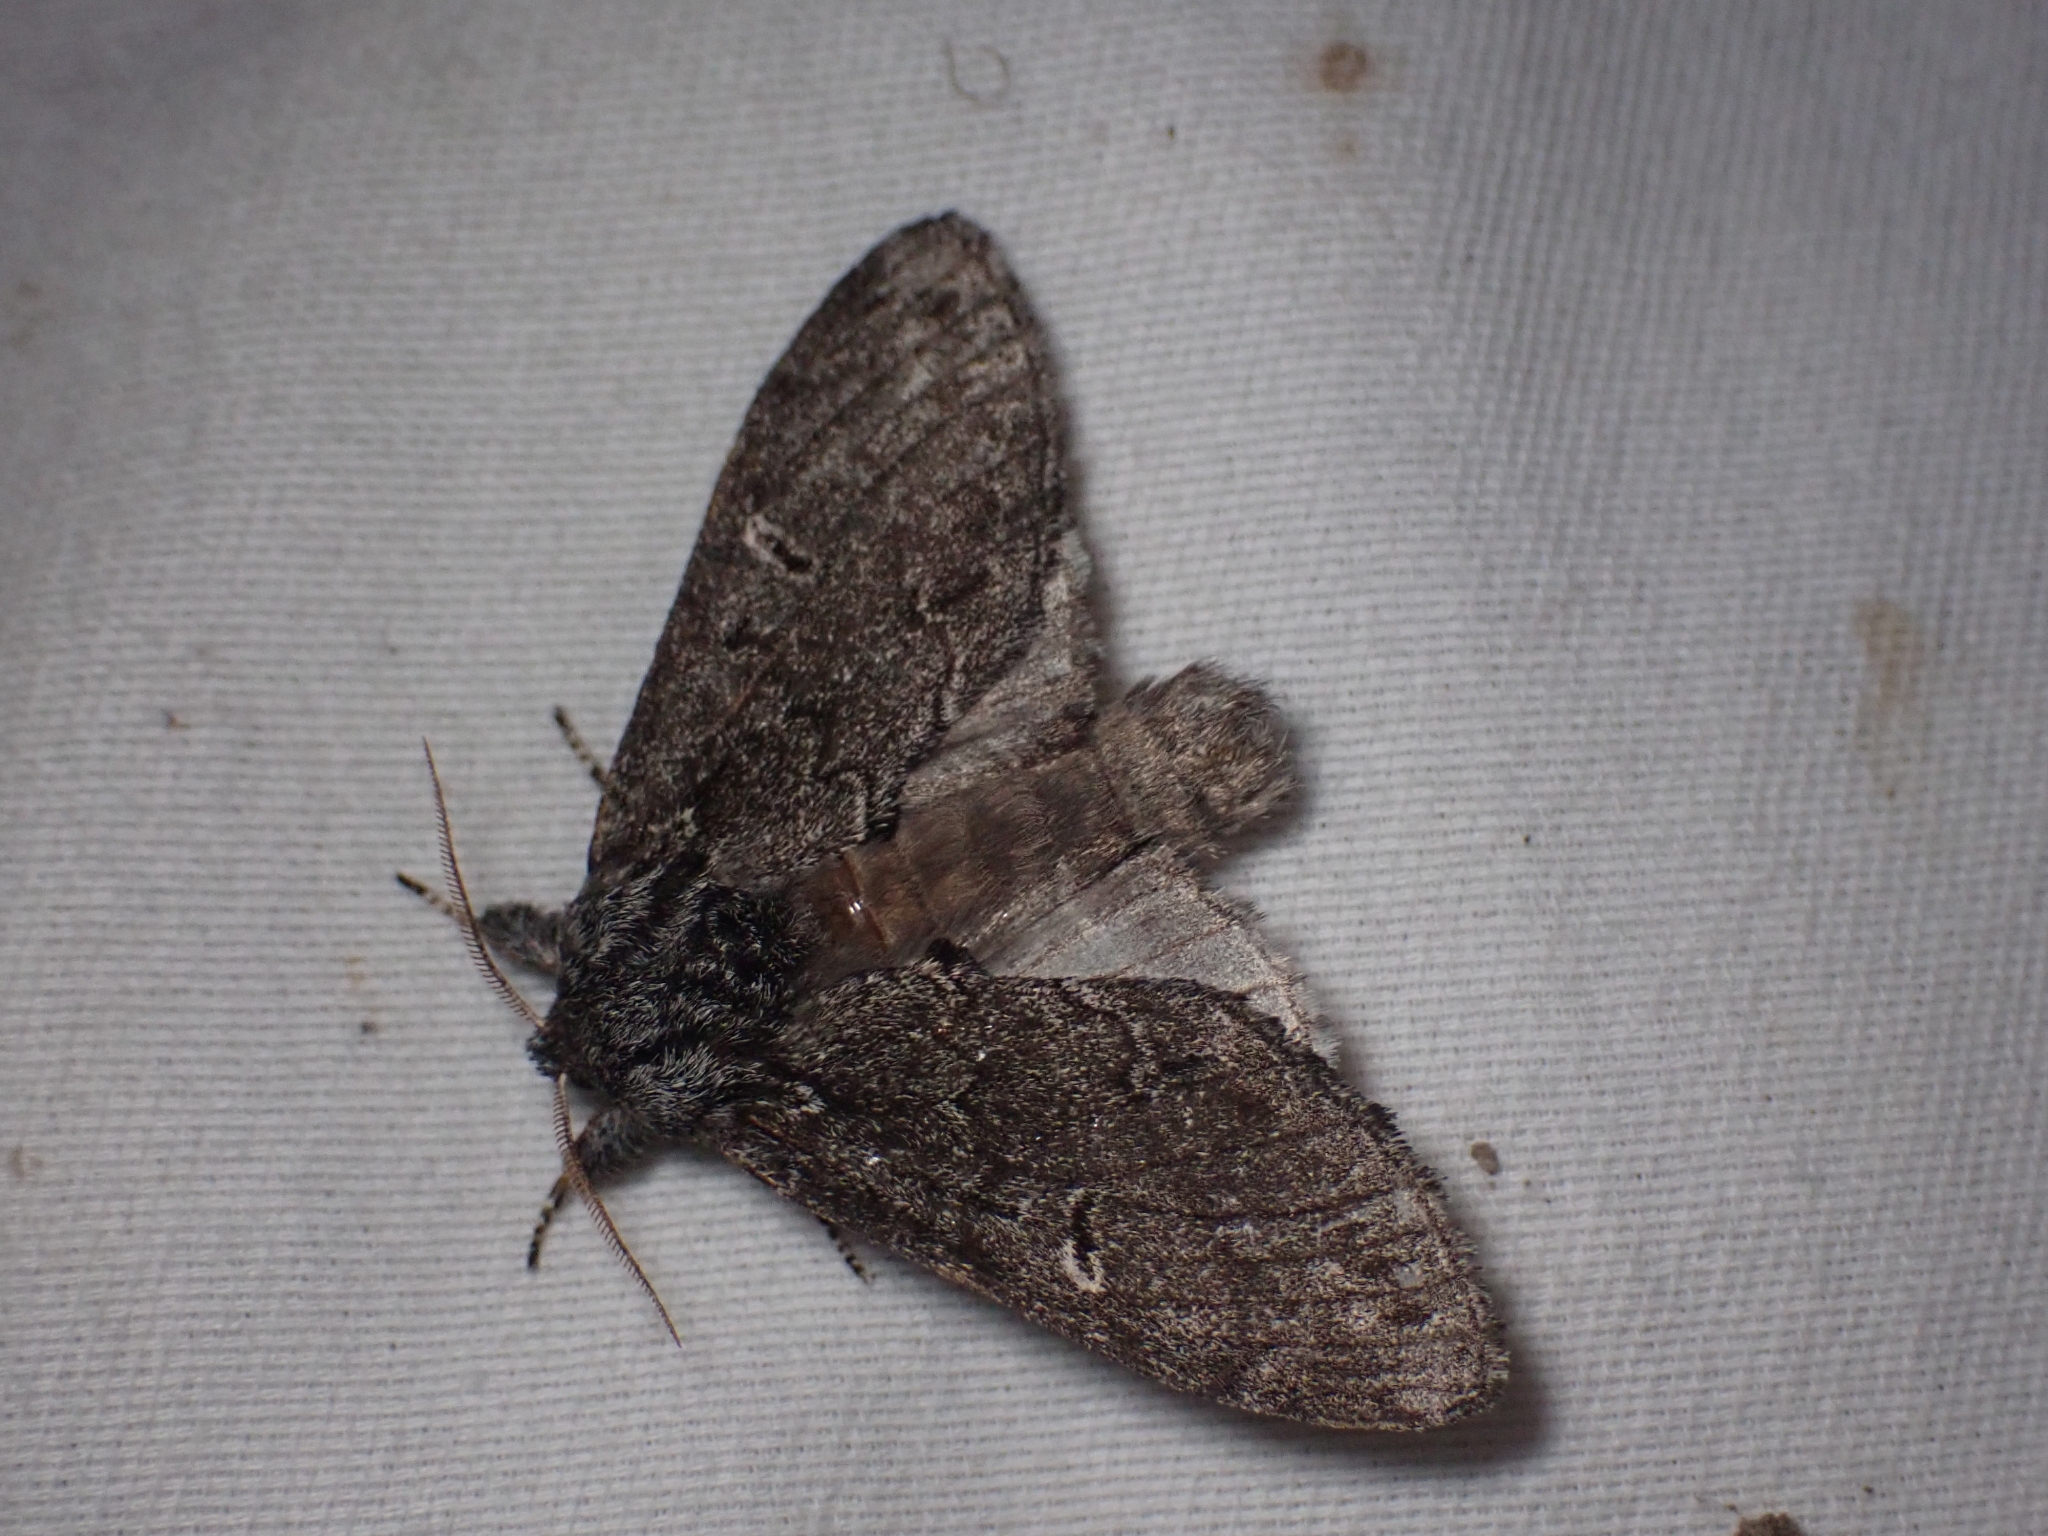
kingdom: Animalia
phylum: Arthropoda
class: Insecta
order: Lepidoptera
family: Notodontidae
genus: Notodonta
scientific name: Notodonta torva
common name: Large dark prominent
